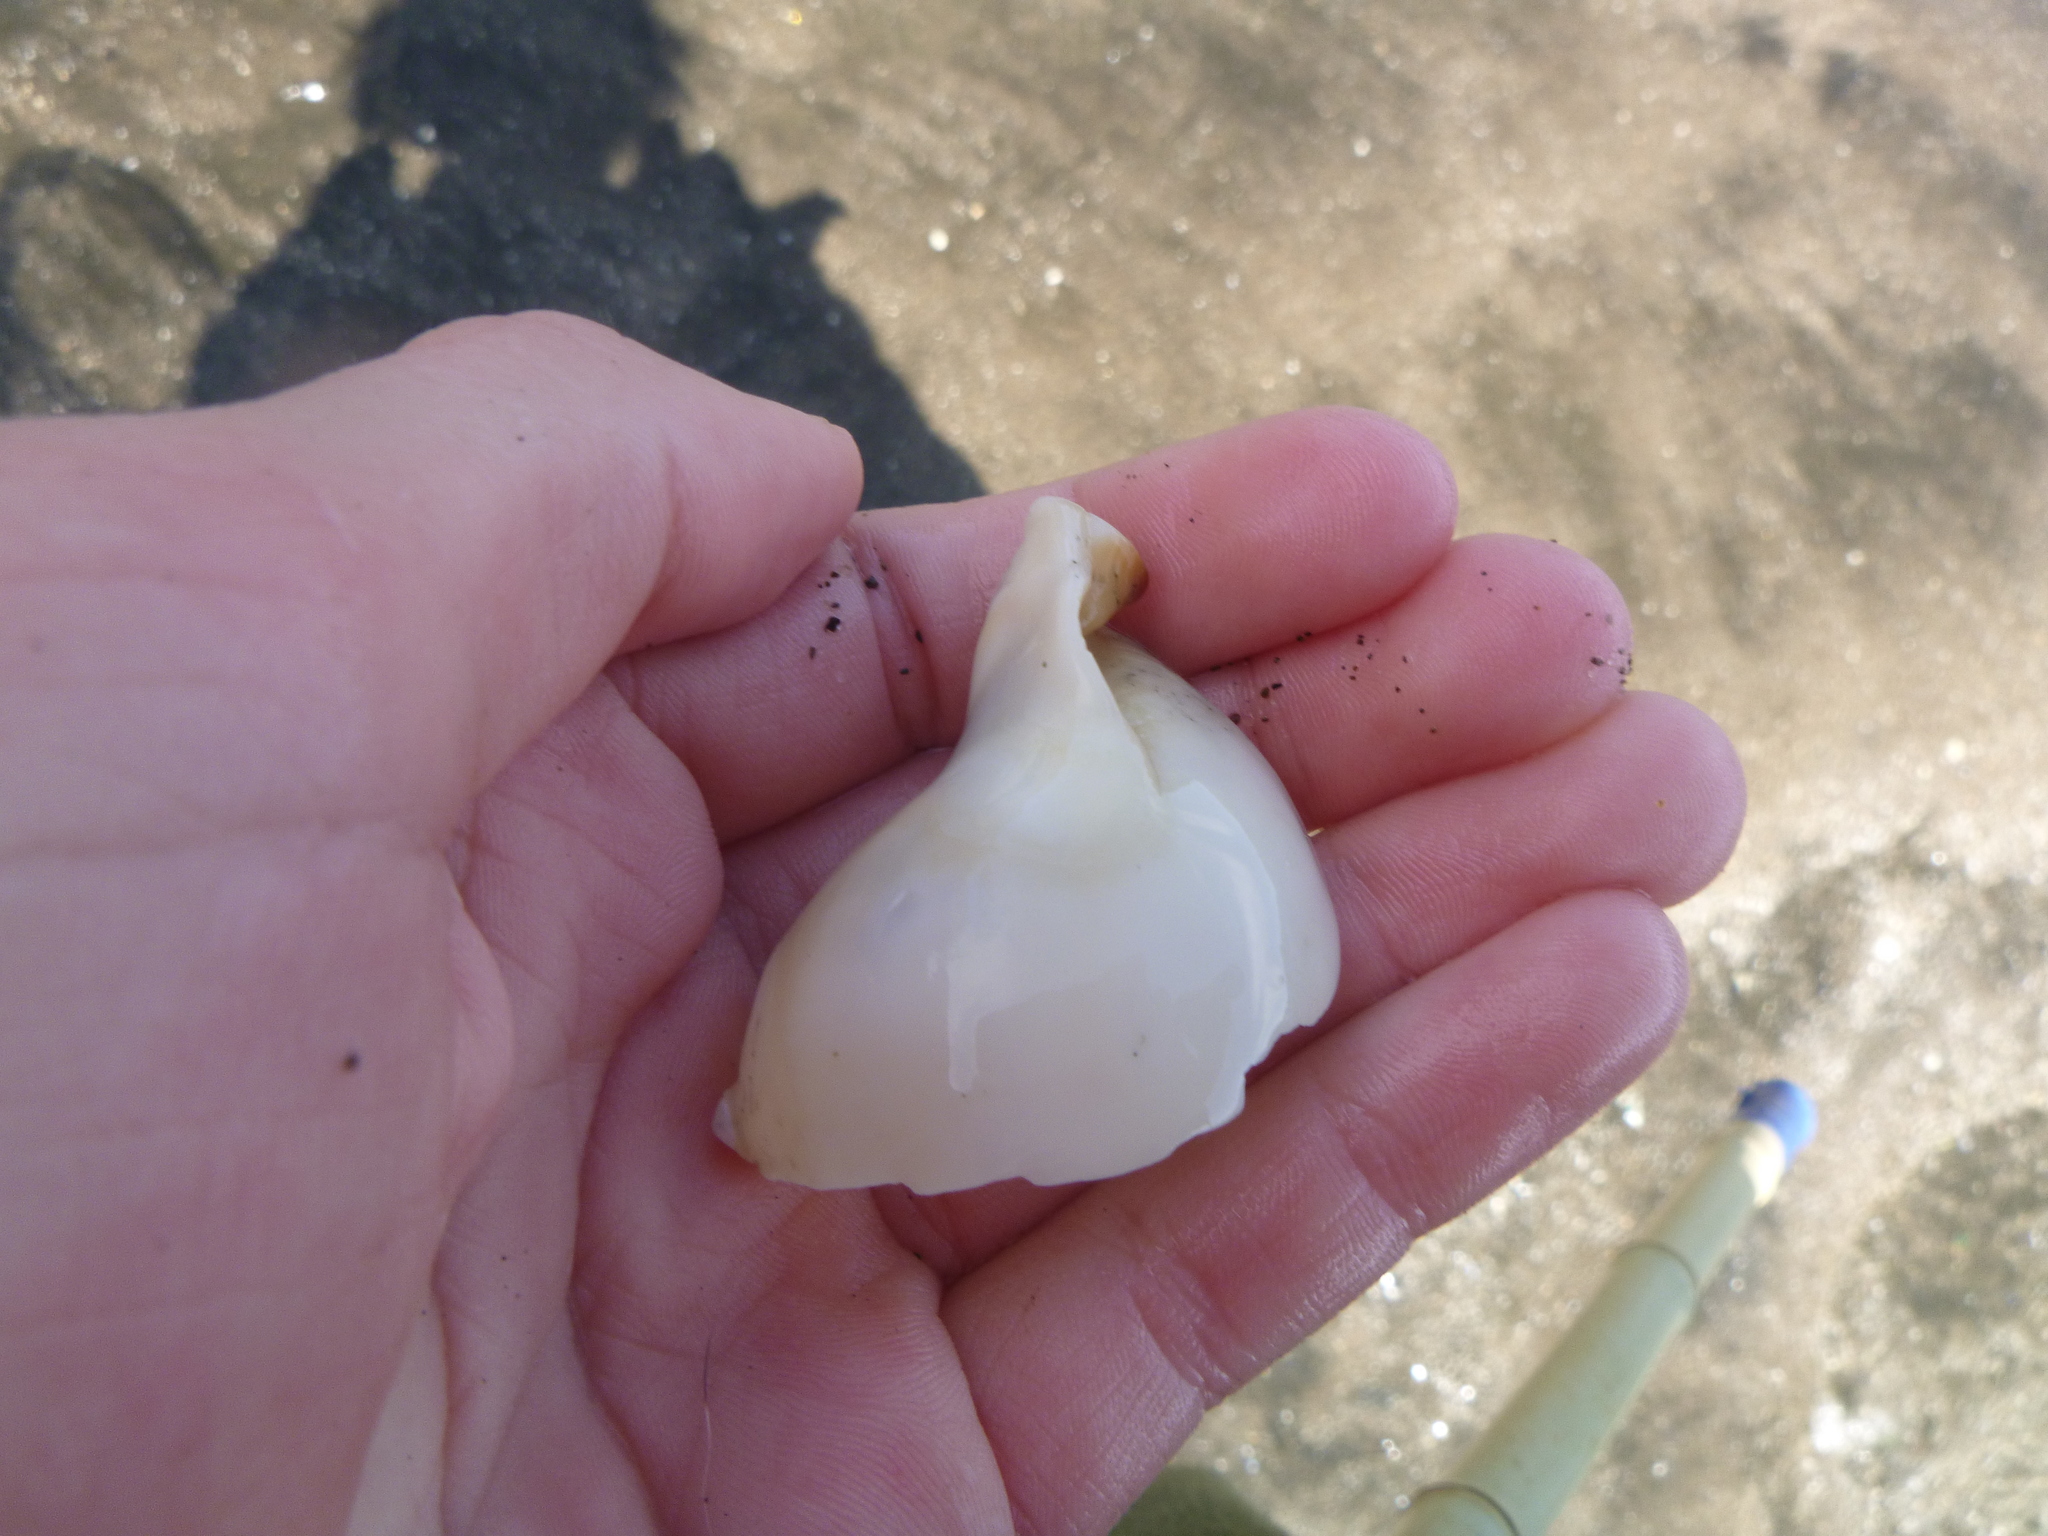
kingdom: Animalia
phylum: Mollusca
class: Gastropoda
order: Littorinimorpha
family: Cassidae
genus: Semicassis
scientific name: Semicassis pyrum
